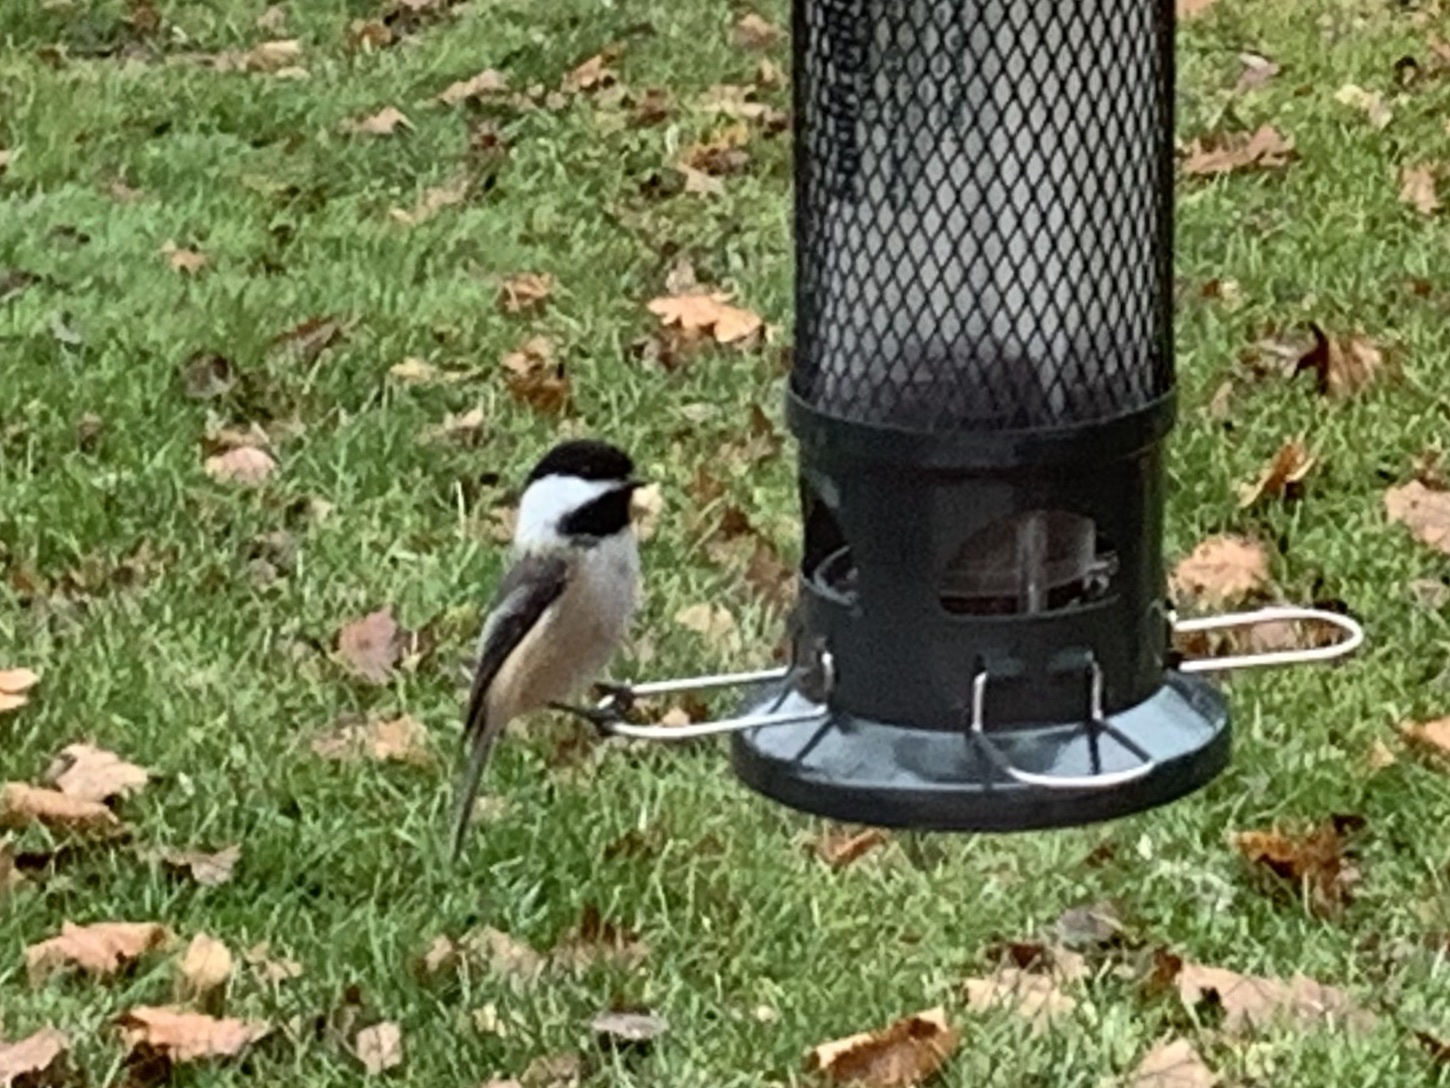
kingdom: Animalia
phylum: Chordata
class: Aves
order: Passeriformes
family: Paridae
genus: Poecile
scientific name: Poecile atricapillus
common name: Black-capped chickadee
